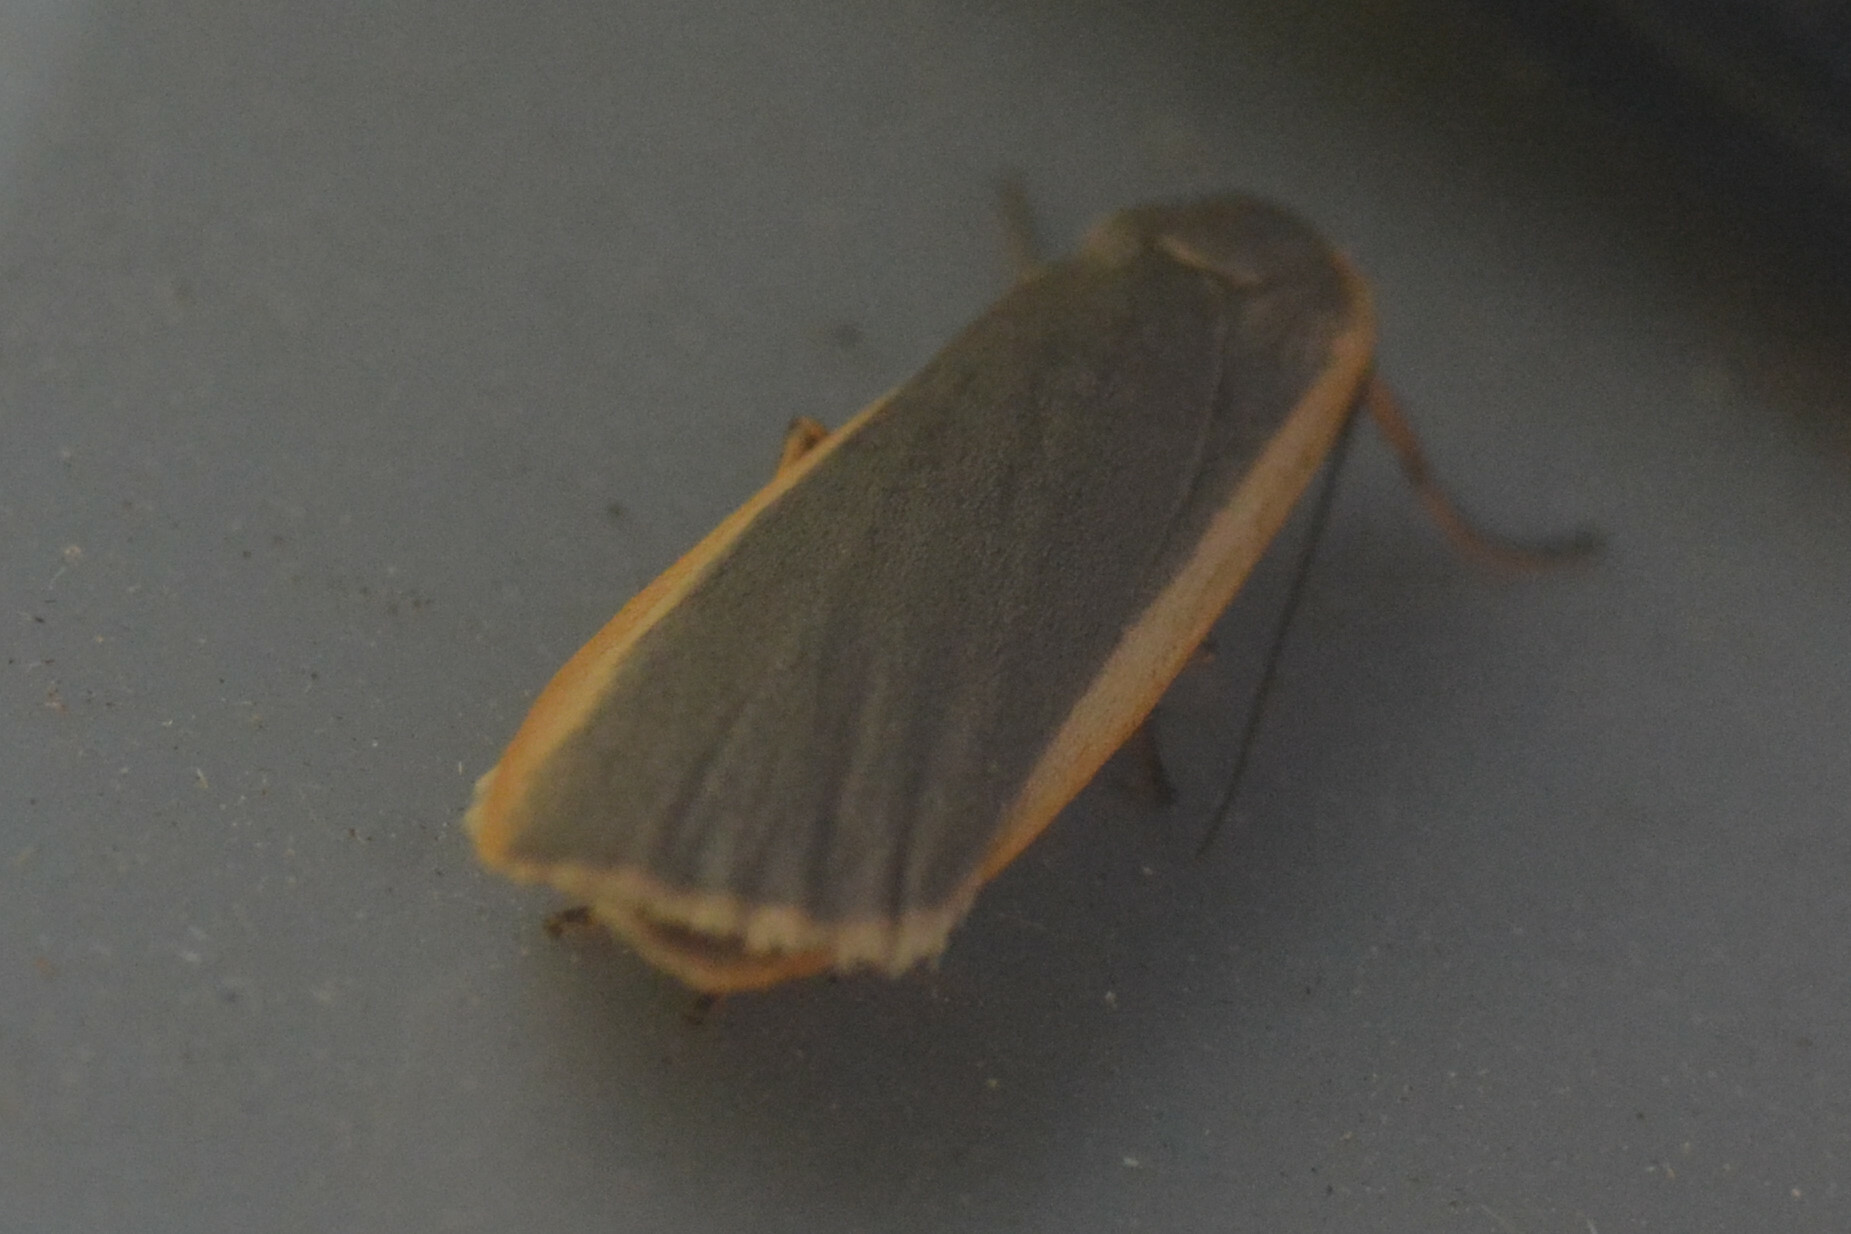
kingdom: Animalia
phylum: Arthropoda
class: Insecta
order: Lepidoptera
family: Erebidae
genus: Nyea
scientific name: Nyea lurideola
